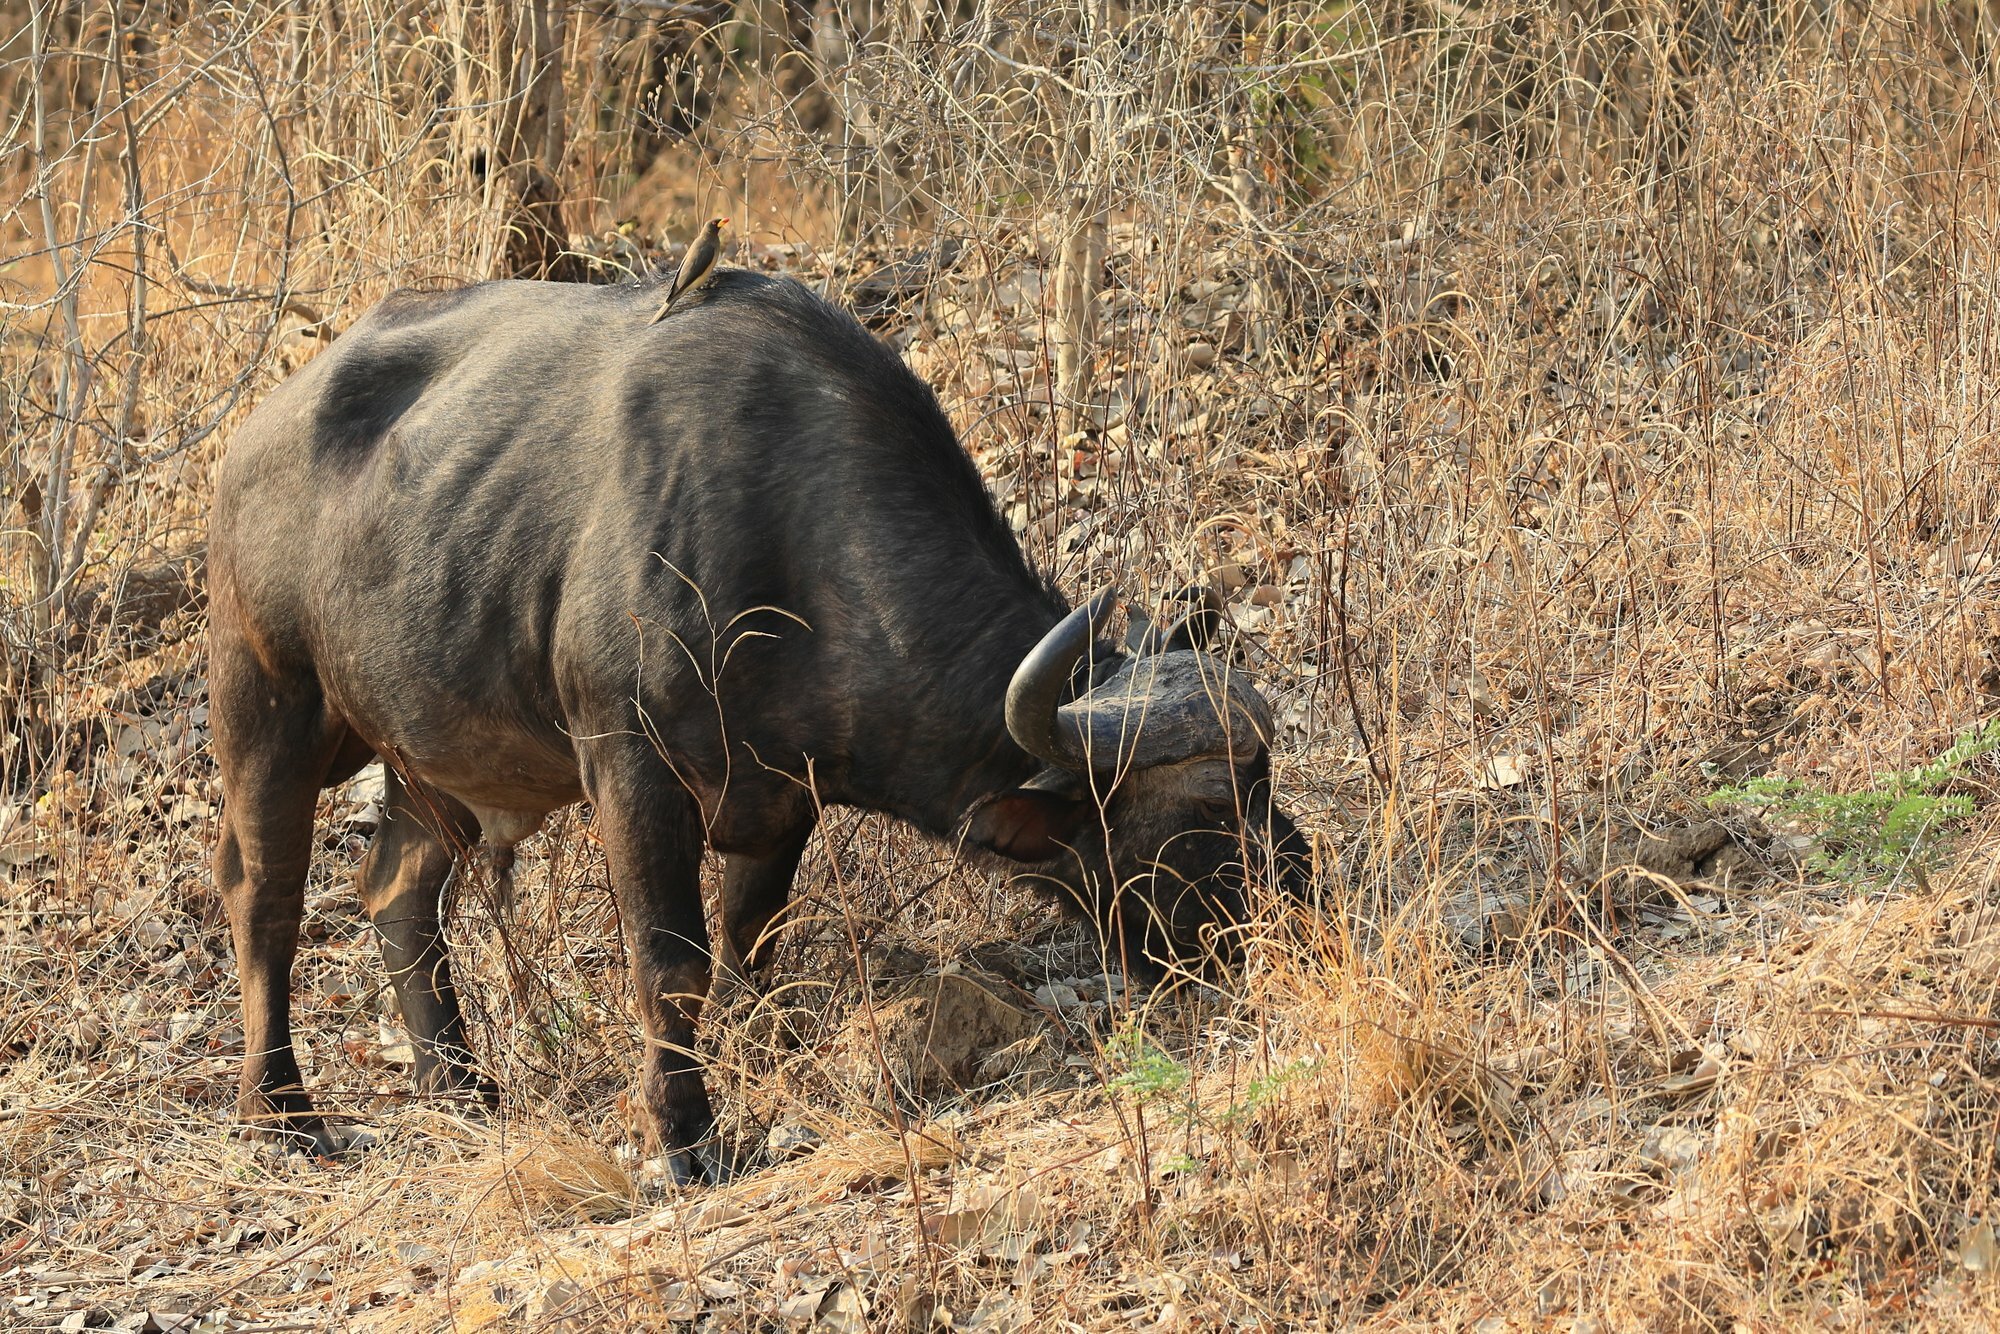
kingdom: Animalia
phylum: Chordata
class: Mammalia
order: Artiodactyla
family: Bovidae
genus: Syncerus
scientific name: Syncerus caffer
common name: African buffalo
